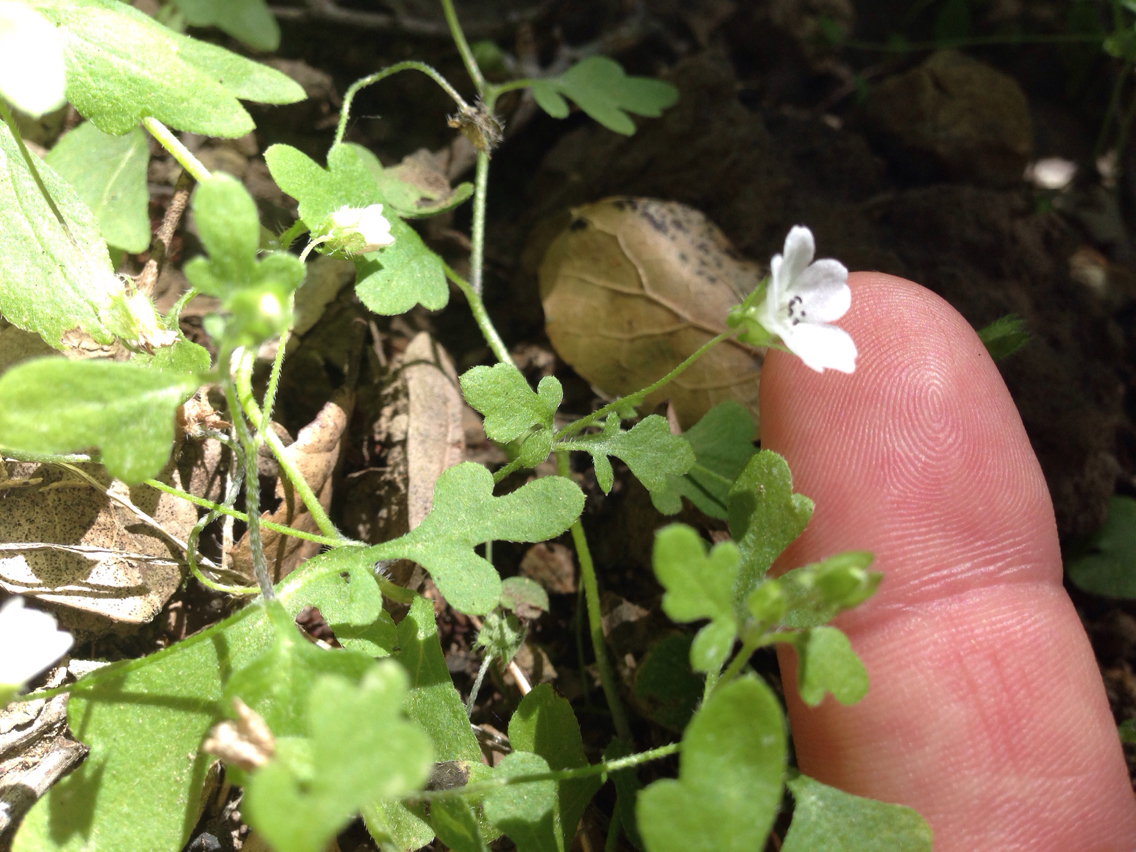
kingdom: Plantae
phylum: Tracheophyta
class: Magnoliopsida
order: Boraginales
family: Hydrophyllaceae
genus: Nemophila
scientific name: Nemophila heterophylla
